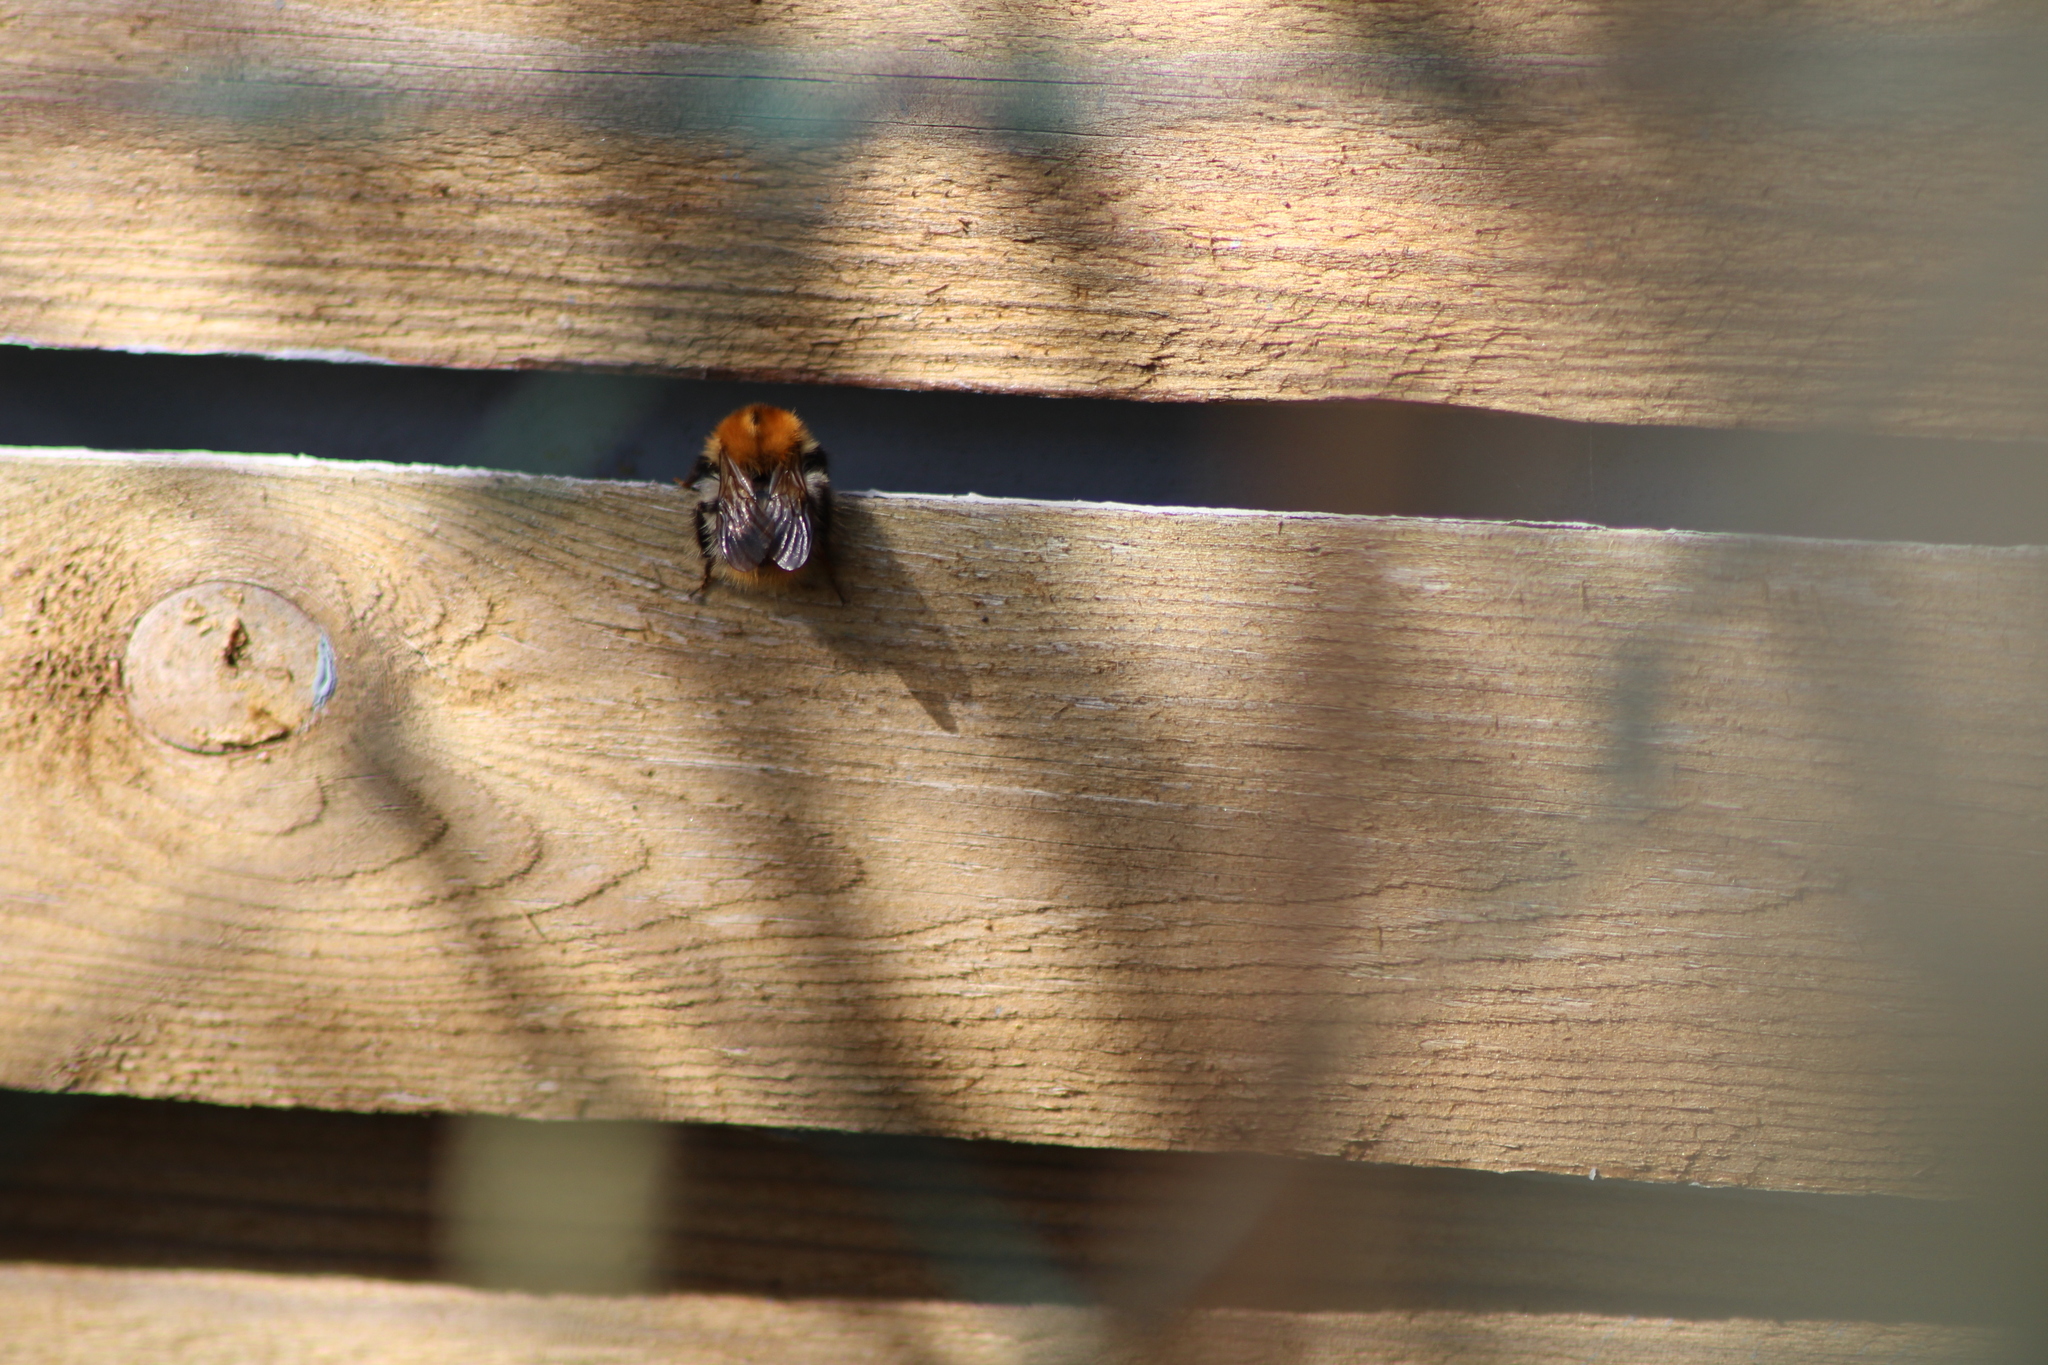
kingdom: Animalia
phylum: Arthropoda
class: Insecta
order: Hymenoptera
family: Apidae
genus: Bombus
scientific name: Bombus pascuorum
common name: Common carder bee
